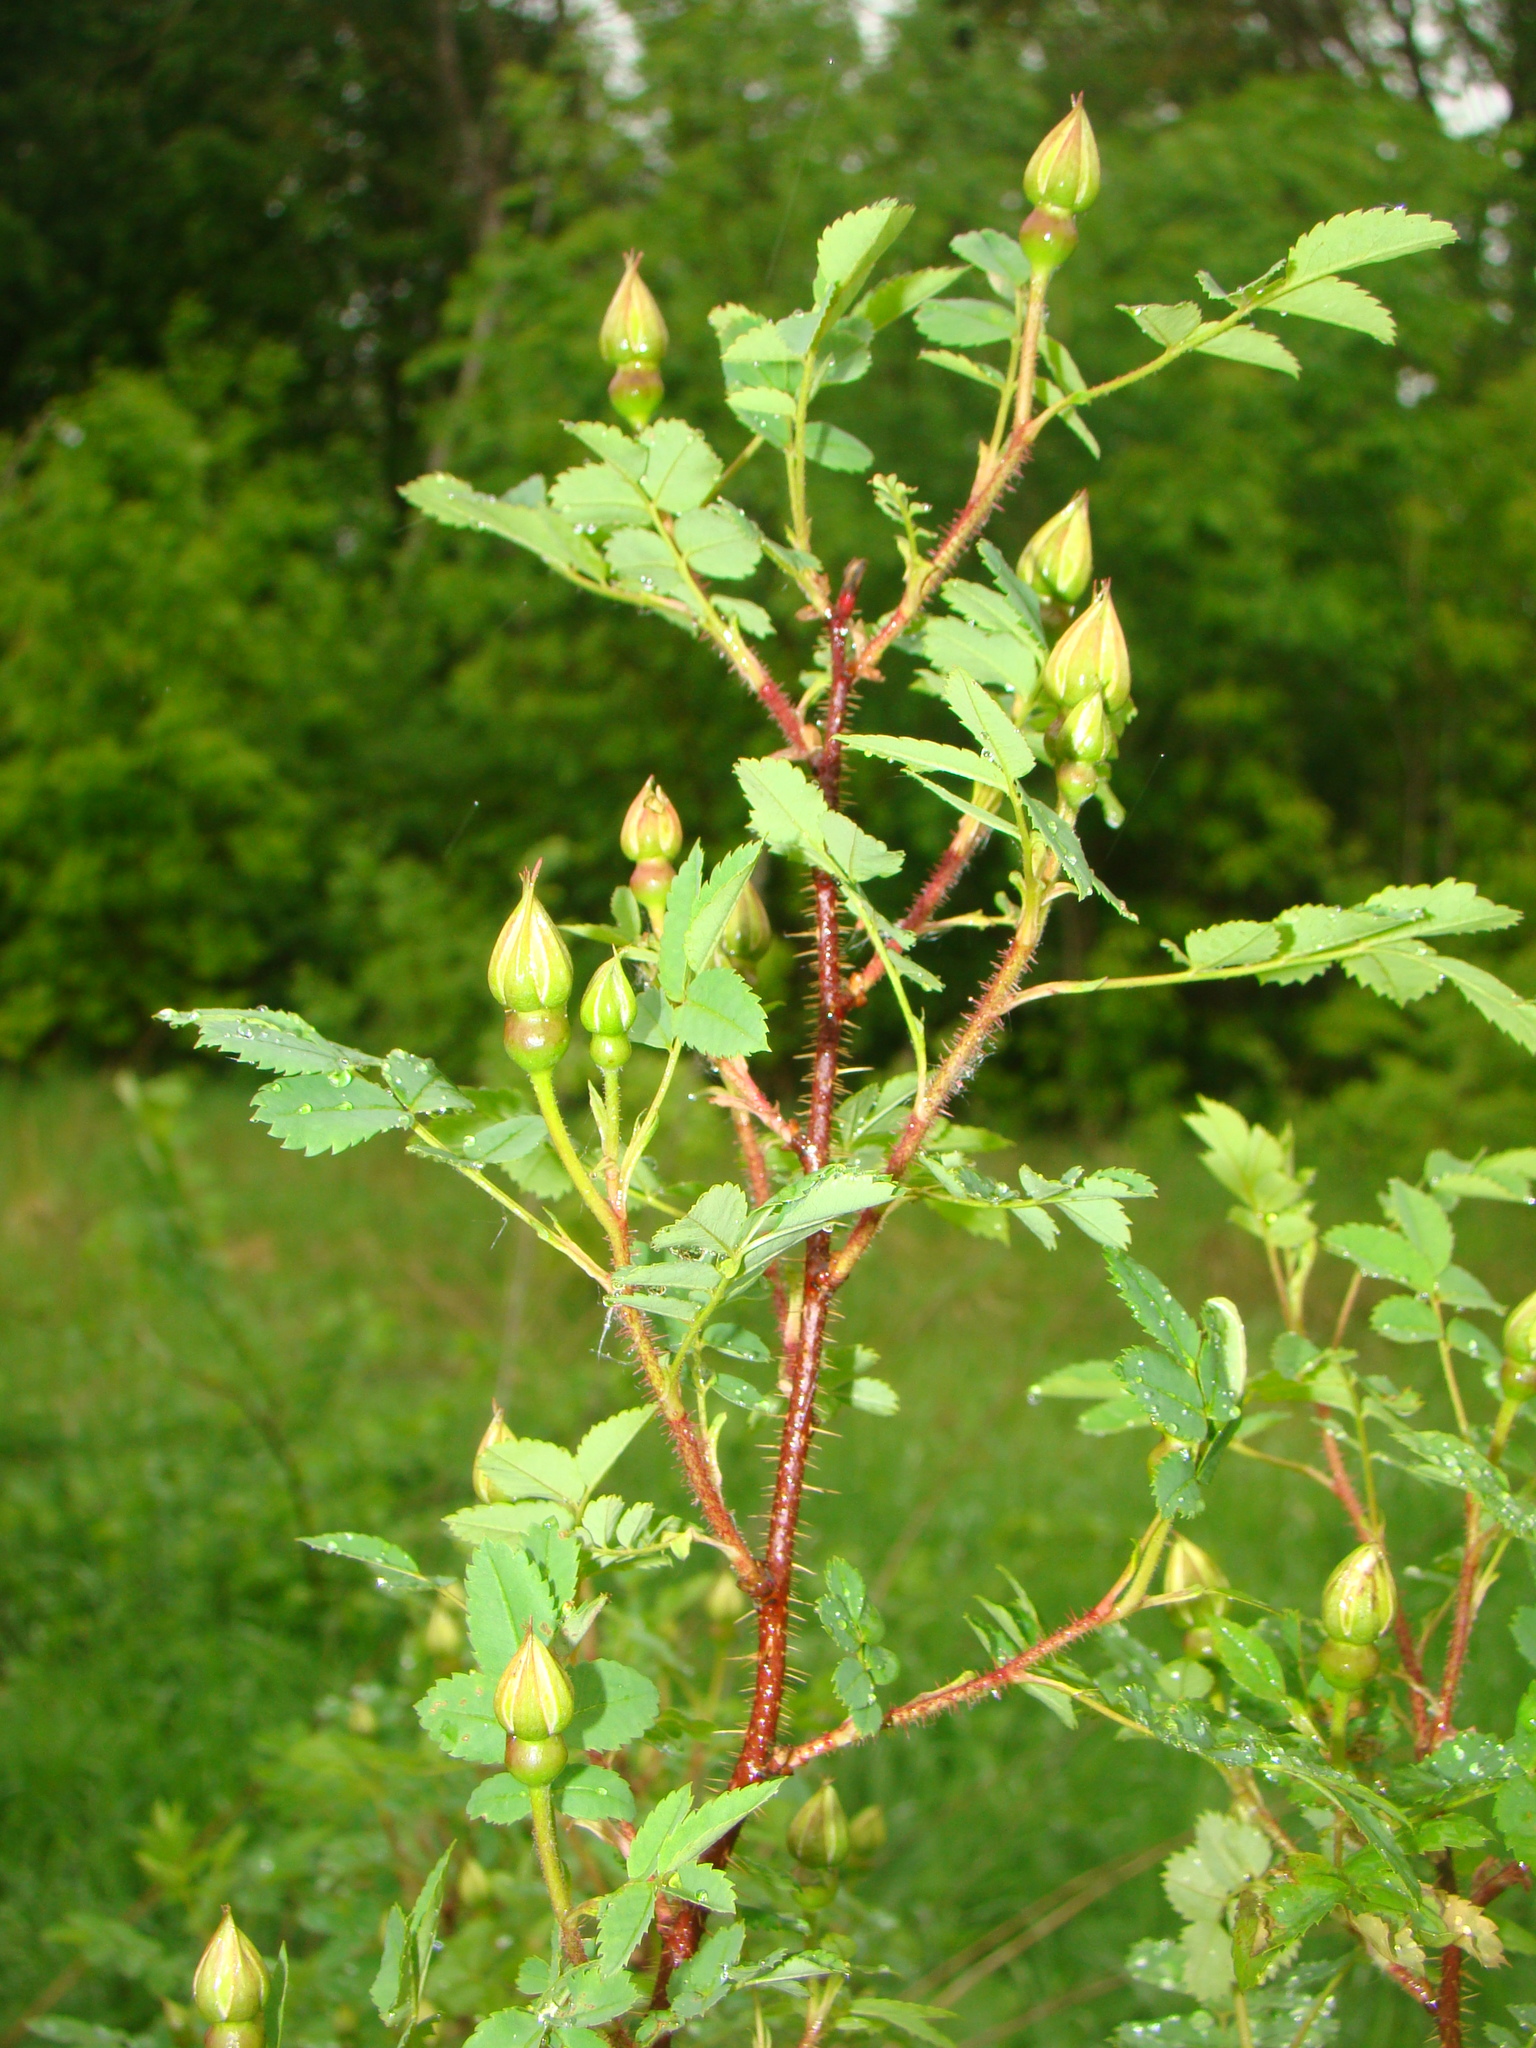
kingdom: Plantae
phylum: Tracheophyta
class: Magnoliopsida
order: Rosales
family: Rosaceae
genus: Rosa
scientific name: Rosa spinosissima
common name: Burnet rose
